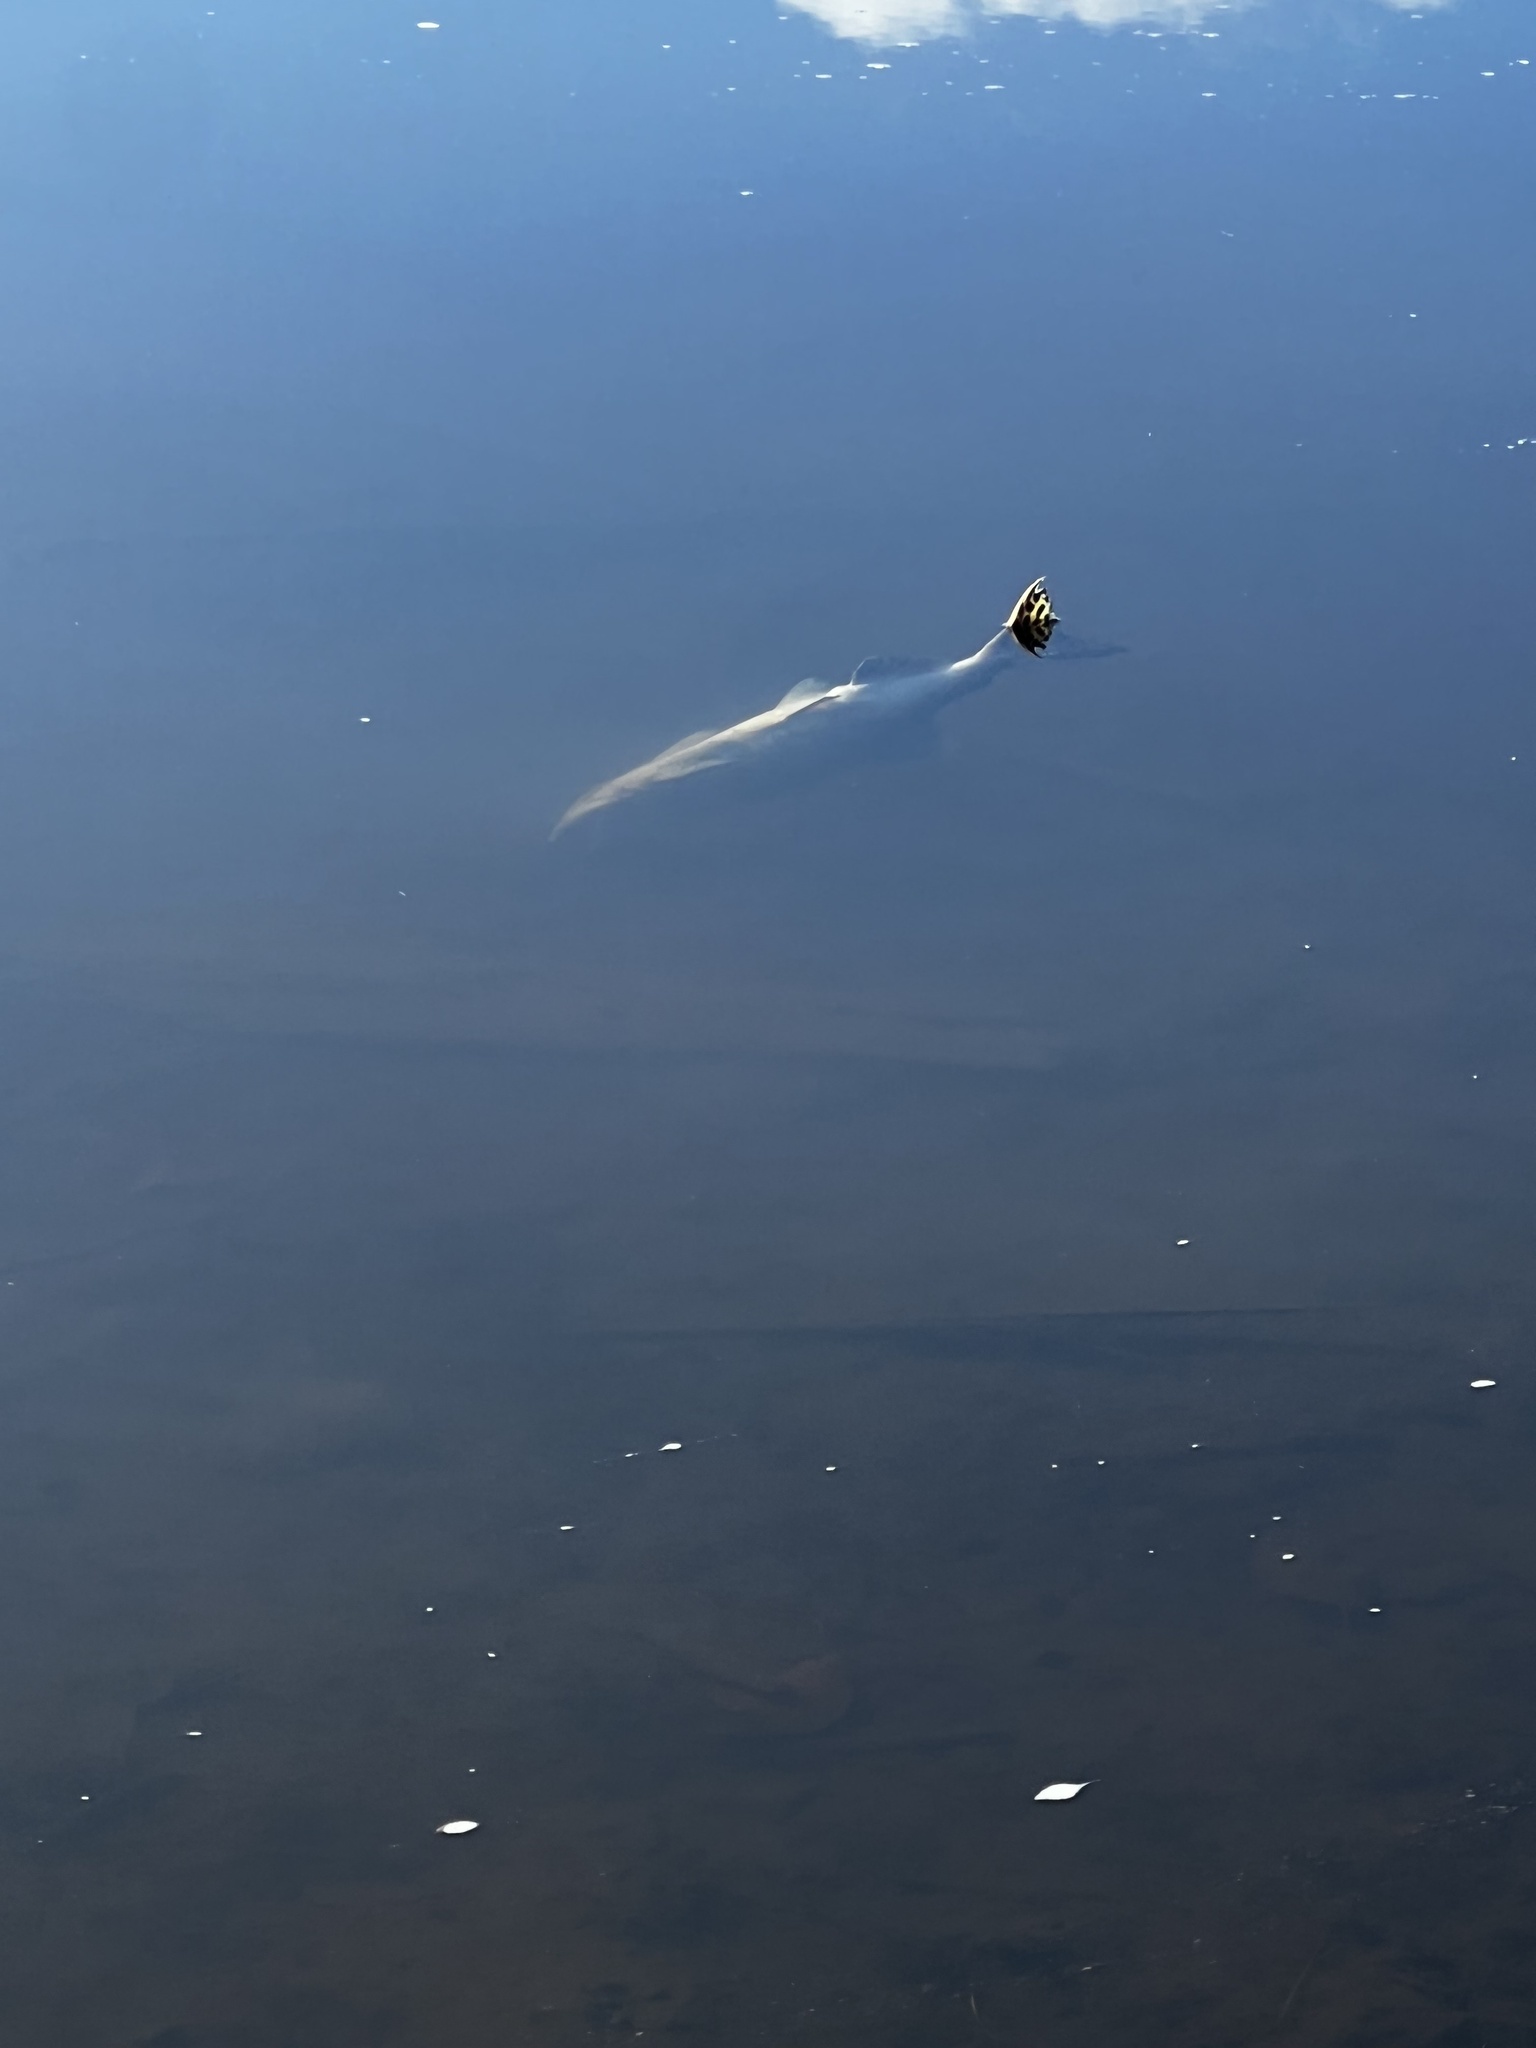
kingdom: Animalia
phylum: Chordata
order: Salmoniformes
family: Salmonidae
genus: Oncorhynchus
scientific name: Oncorhynchus gorbuscha
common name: Humpback salmon
